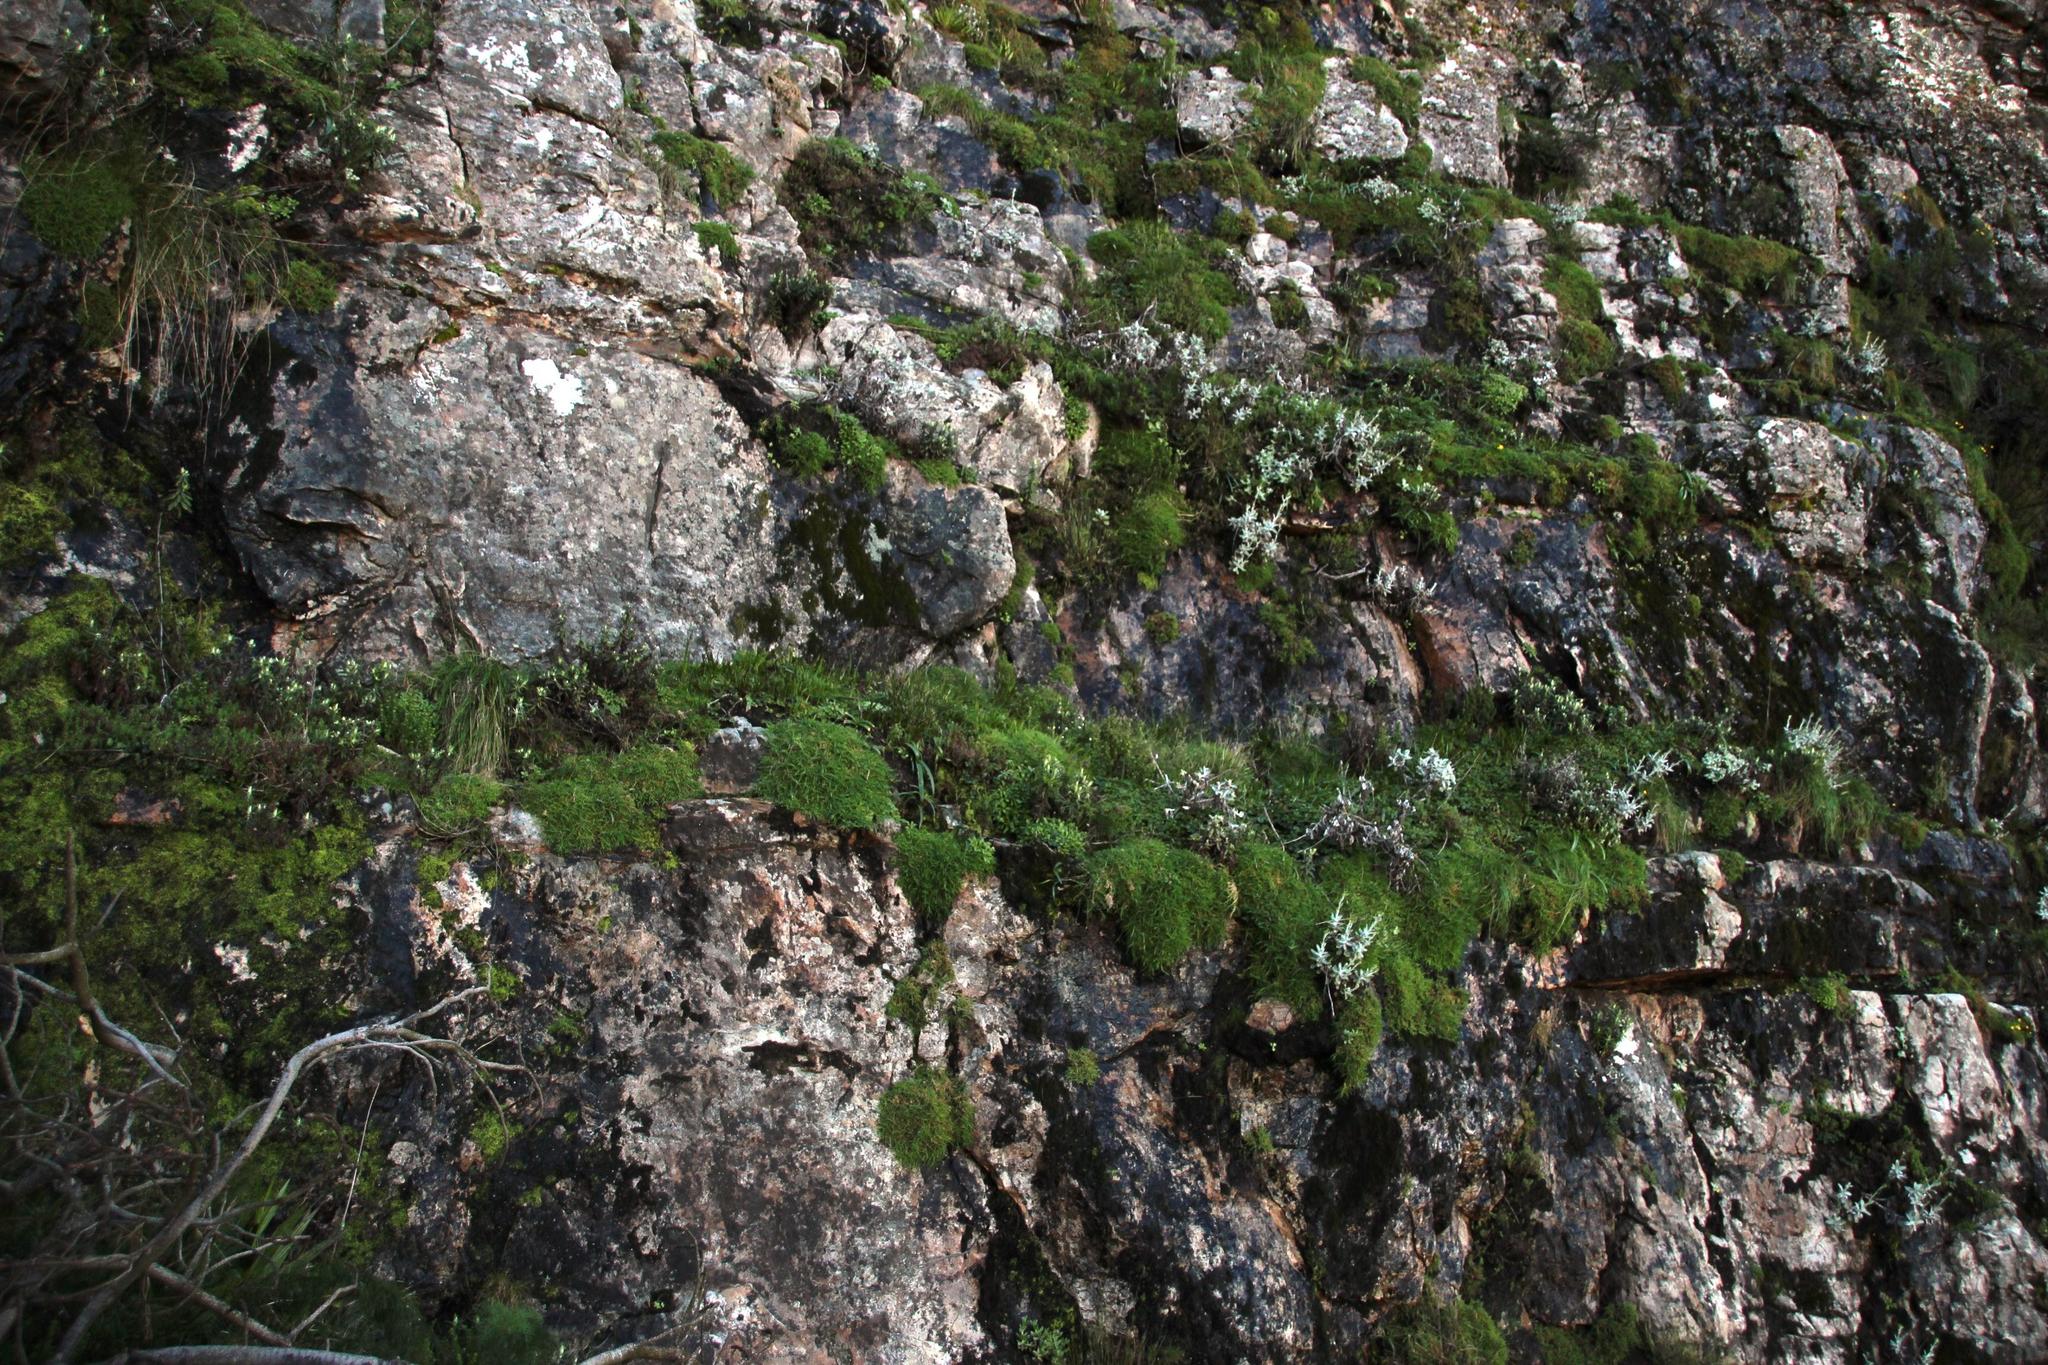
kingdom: Plantae
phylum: Tracheophyta
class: Liliopsida
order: Poales
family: Poaceae
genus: Pentameris
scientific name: Pentameris capensis
